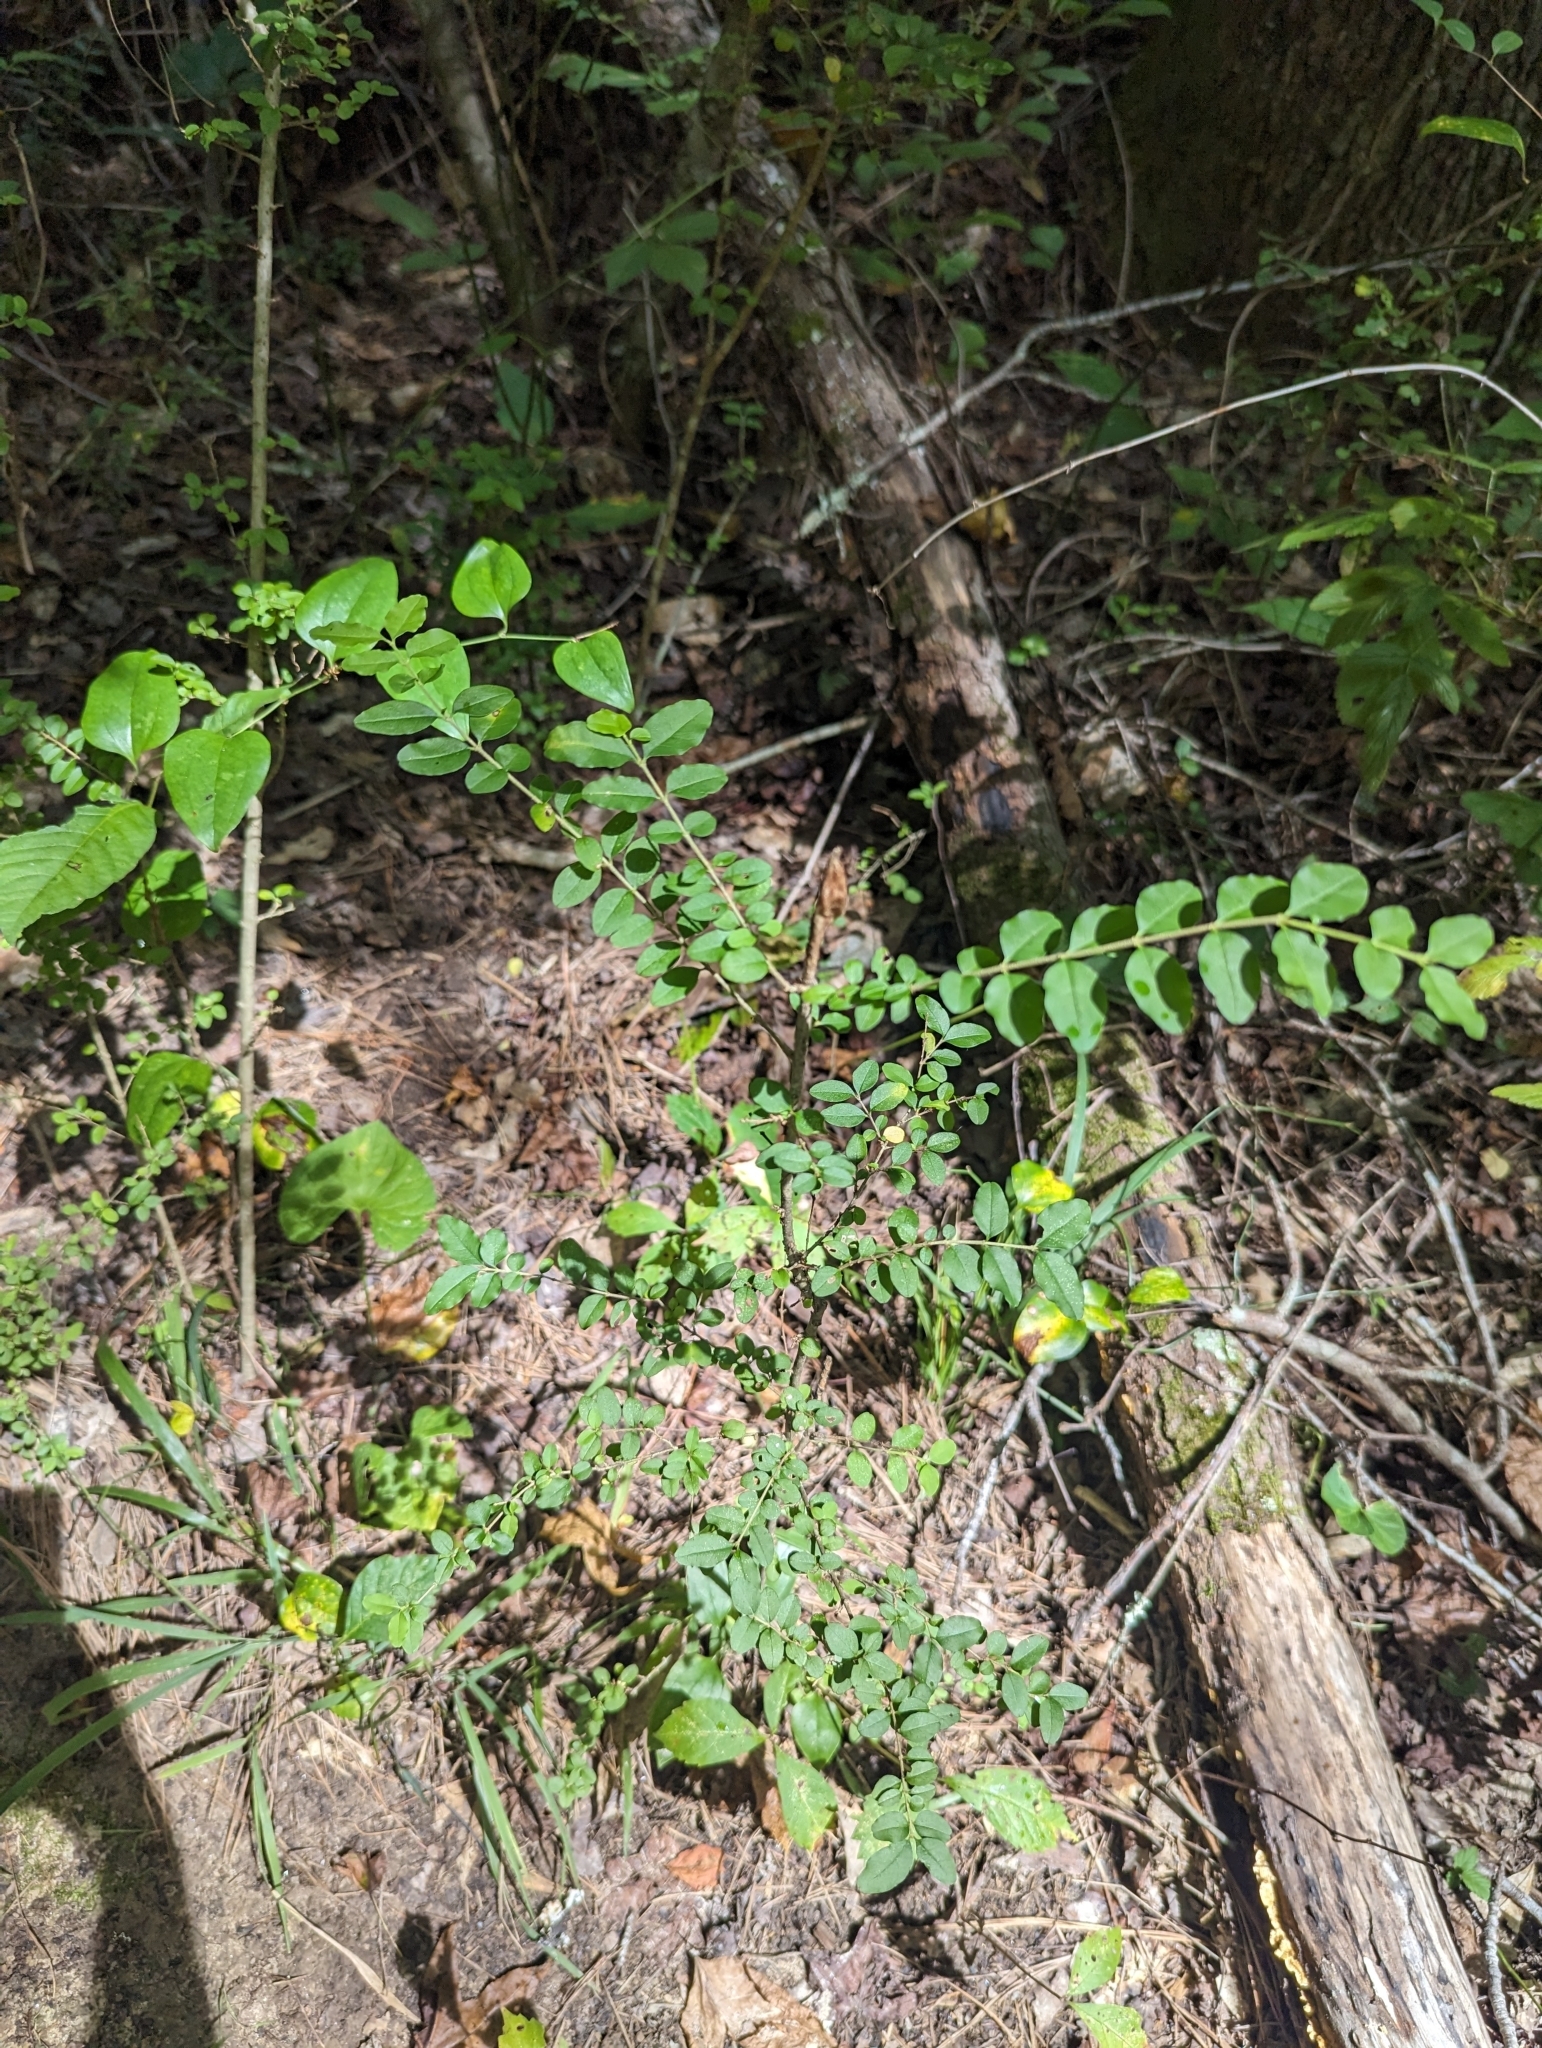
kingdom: Plantae
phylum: Tracheophyta
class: Magnoliopsida
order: Lamiales
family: Oleaceae
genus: Ligustrum
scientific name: Ligustrum sinense
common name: Chinese privet
